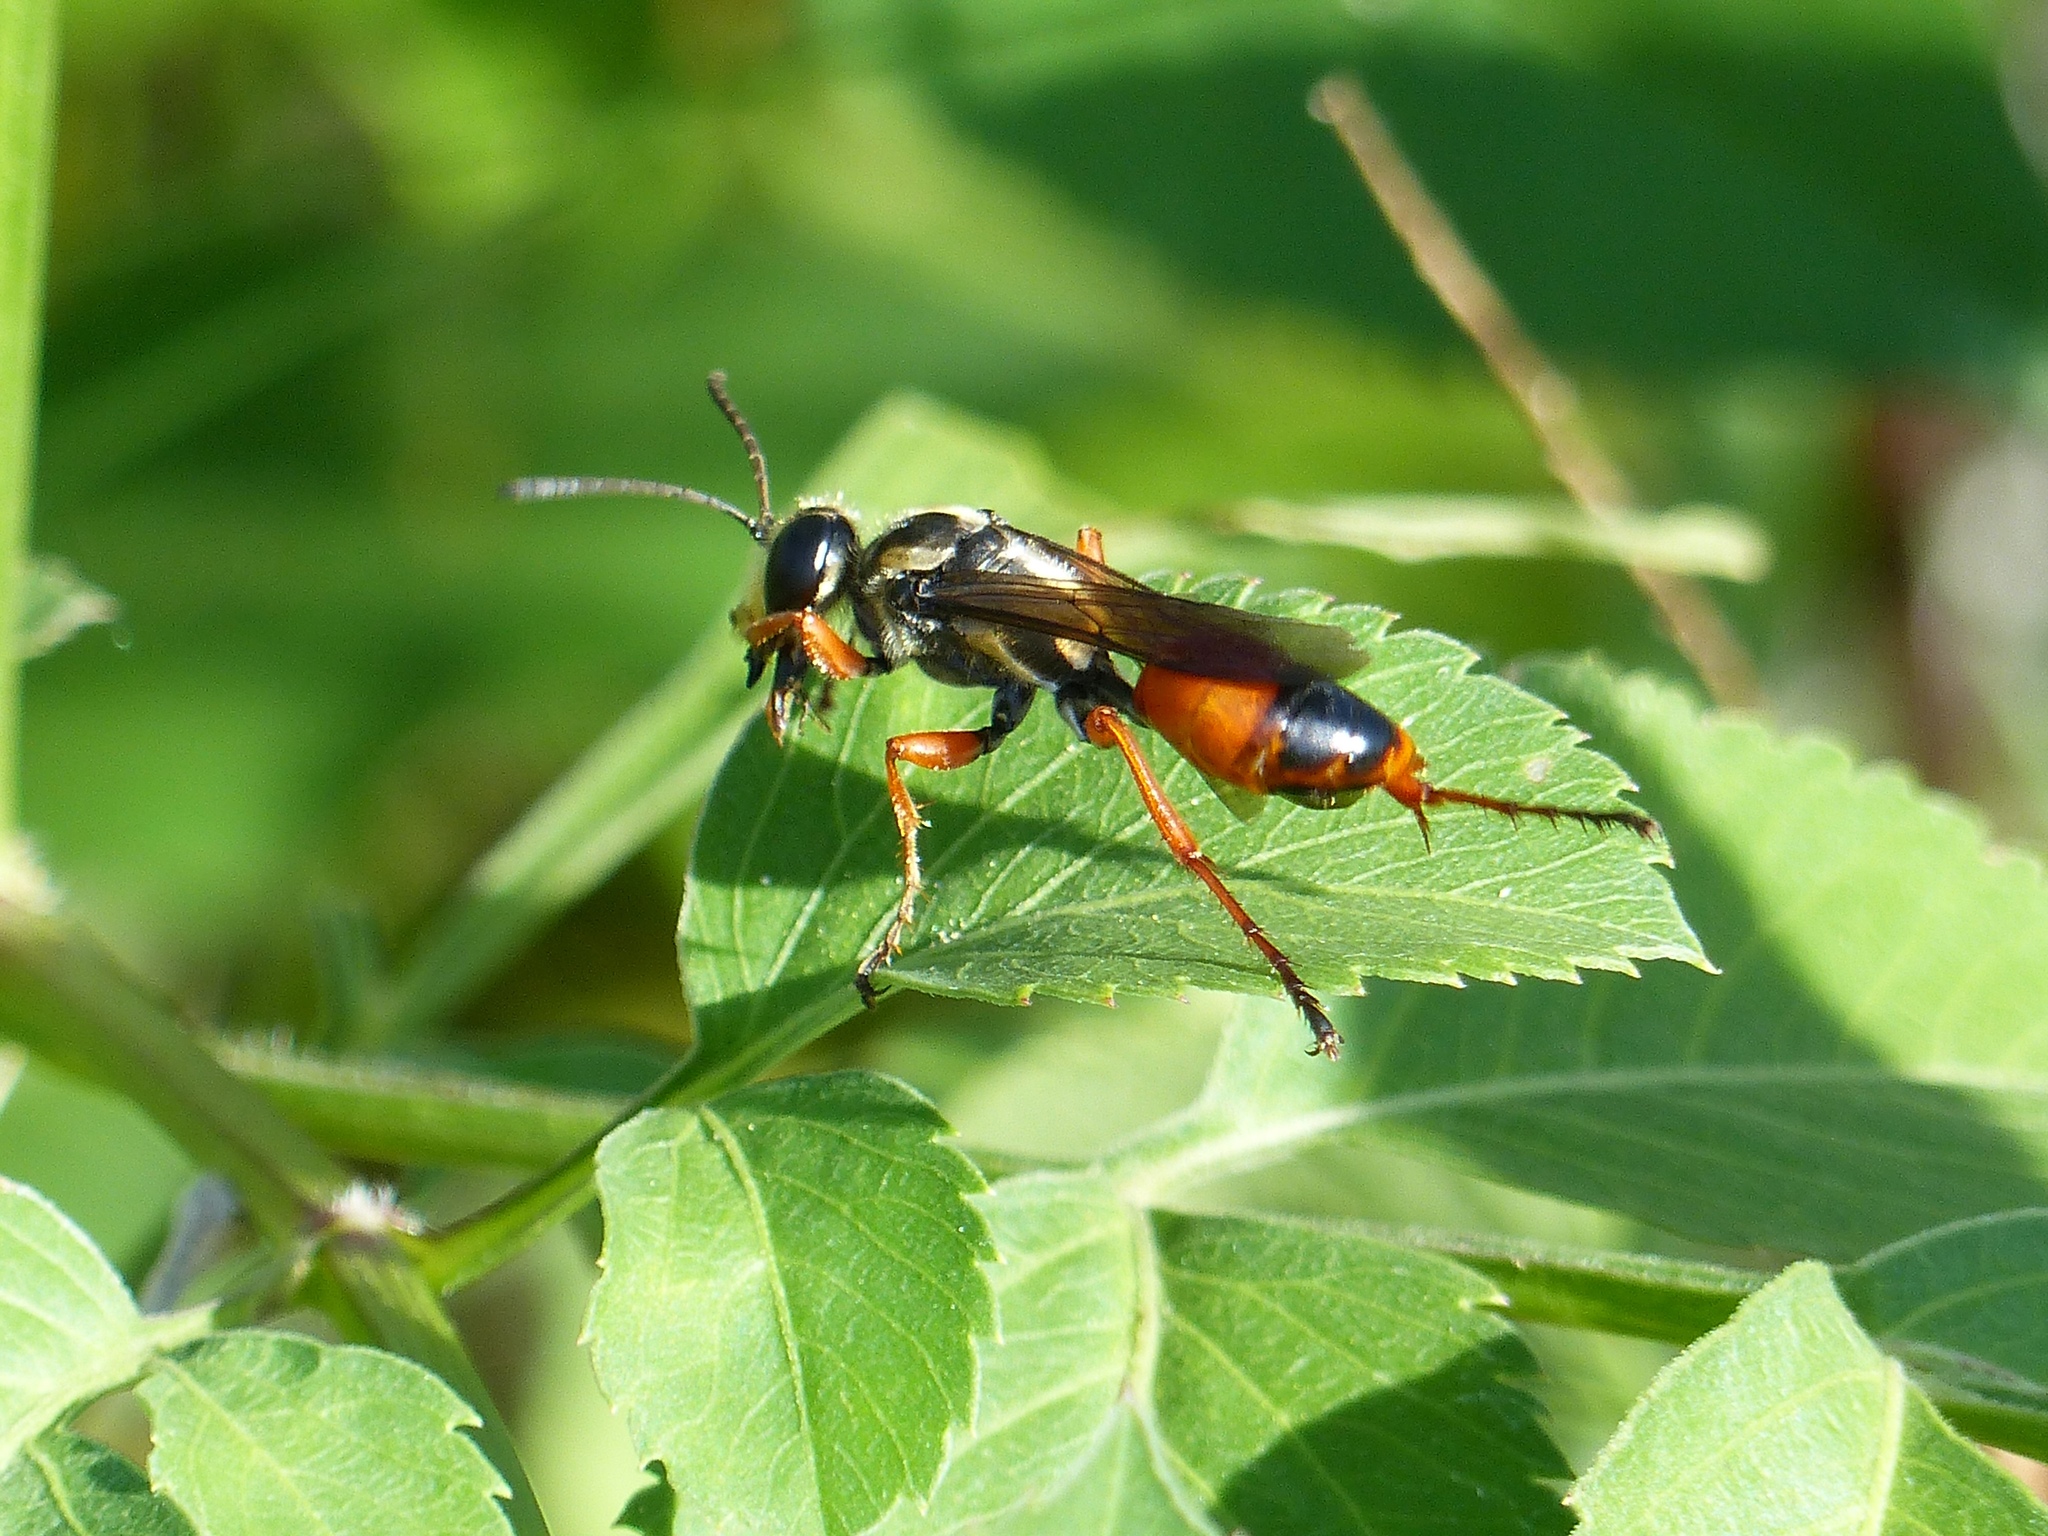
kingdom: Animalia
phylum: Arthropoda
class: Insecta
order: Hymenoptera
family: Sphecidae
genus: Sphex
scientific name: Sphex dorsalis
